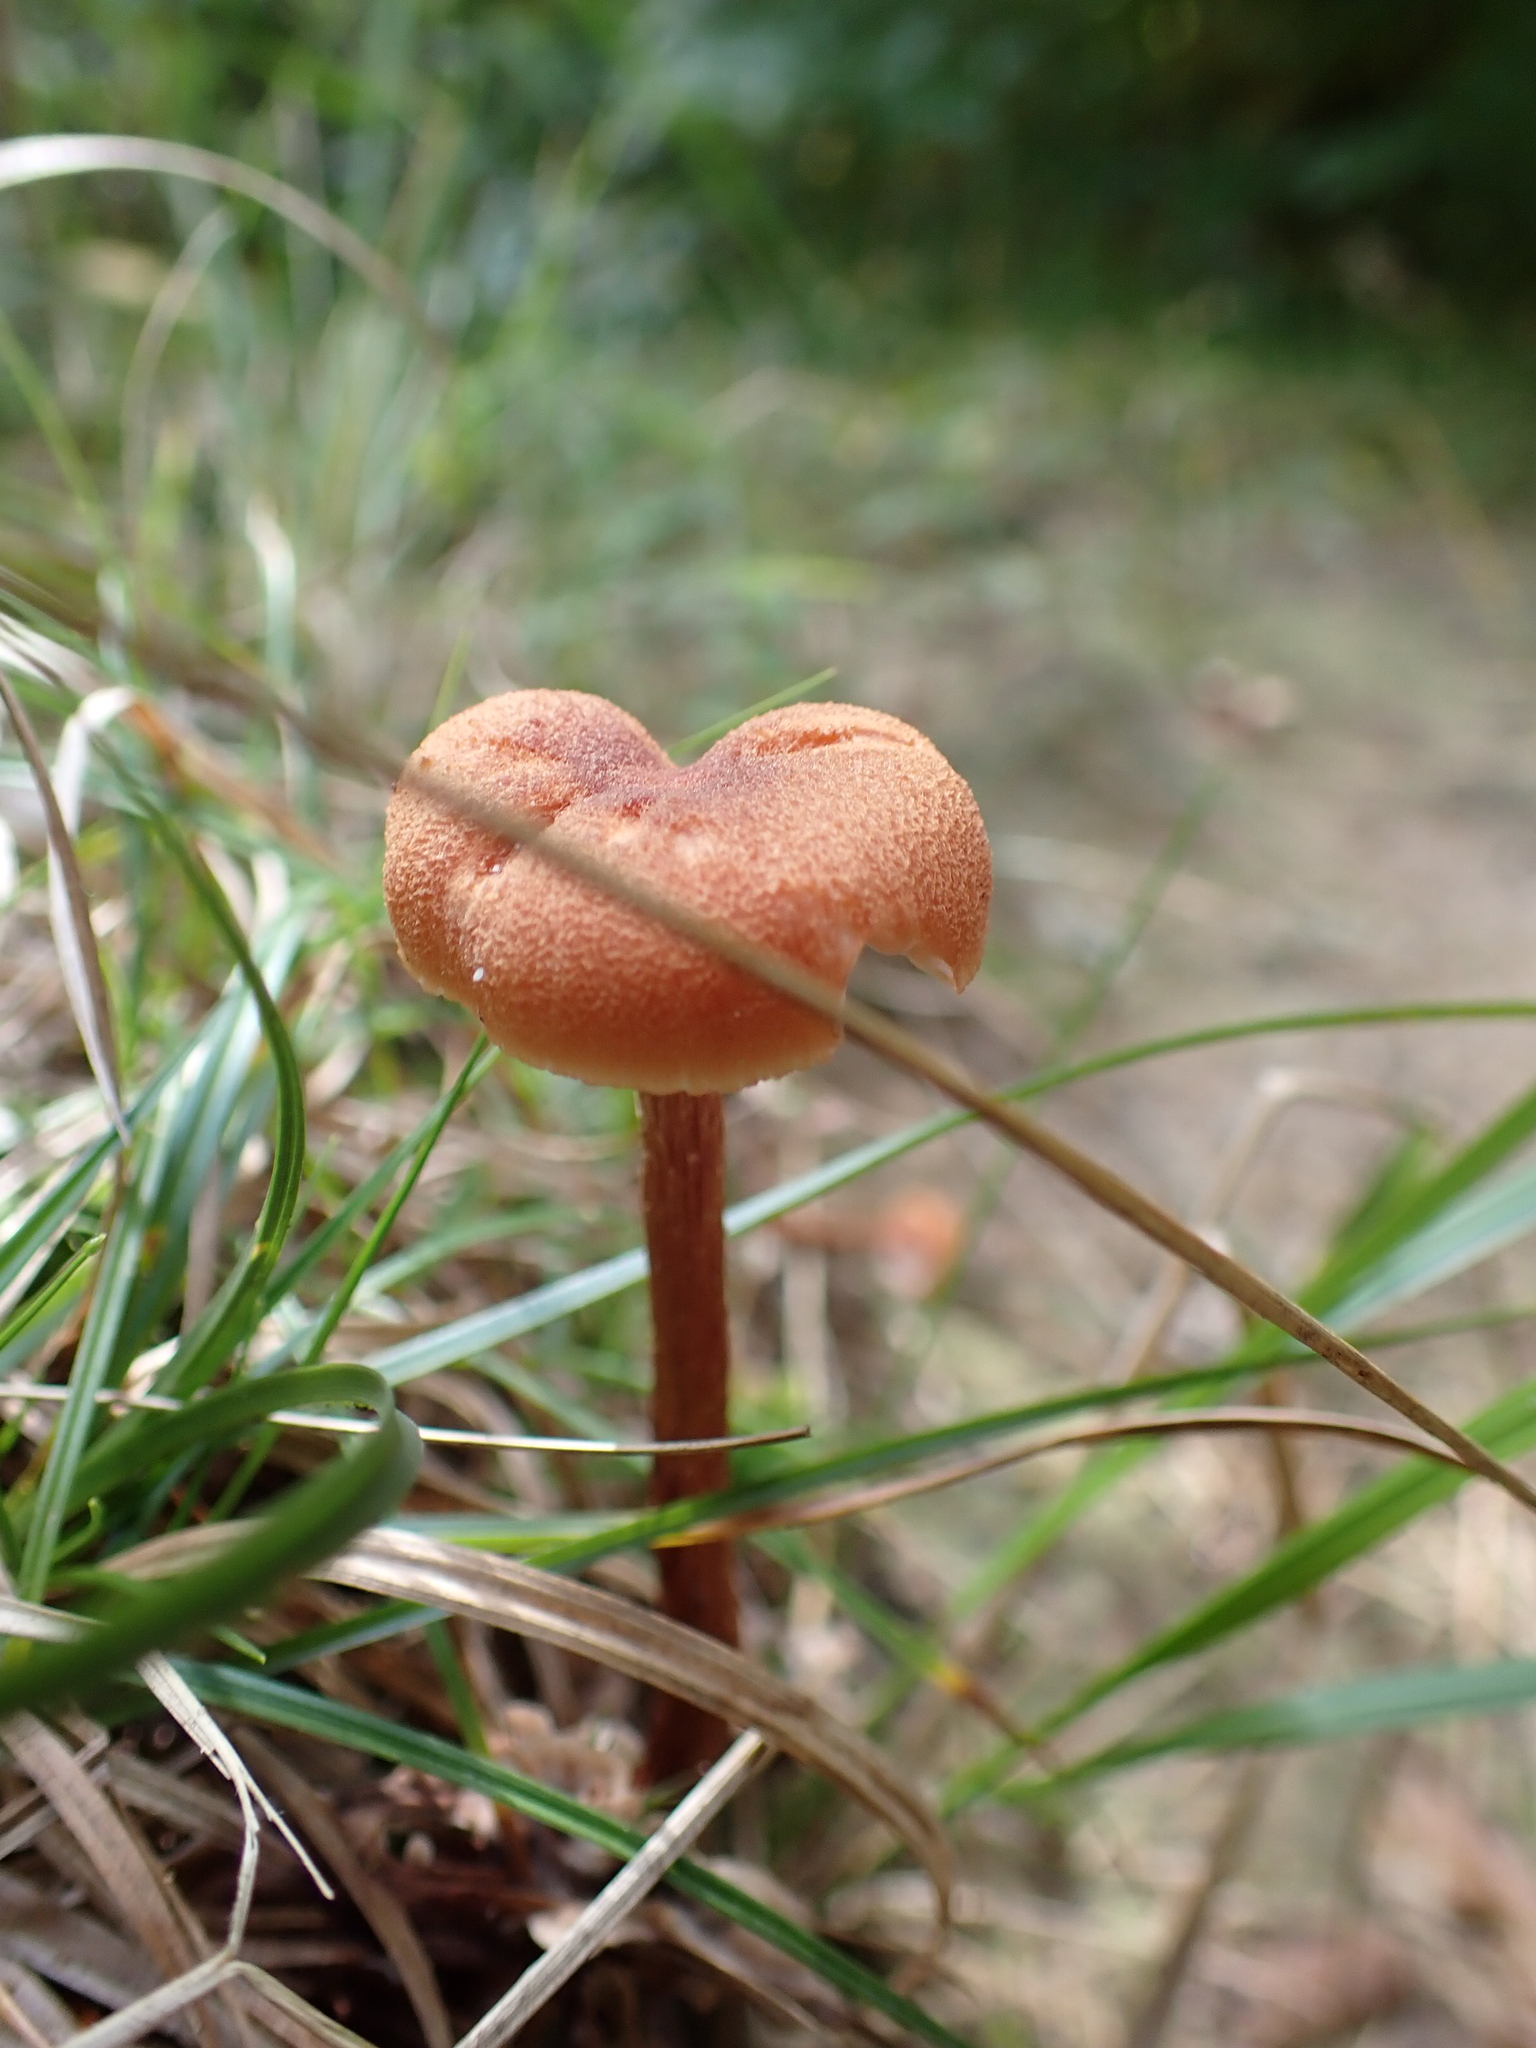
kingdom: Fungi
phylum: Basidiomycota
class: Agaricomycetes
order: Agaricales
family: Hydnangiaceae
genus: Laccaria
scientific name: Laccaria proxima
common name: Scurfy deceiver
